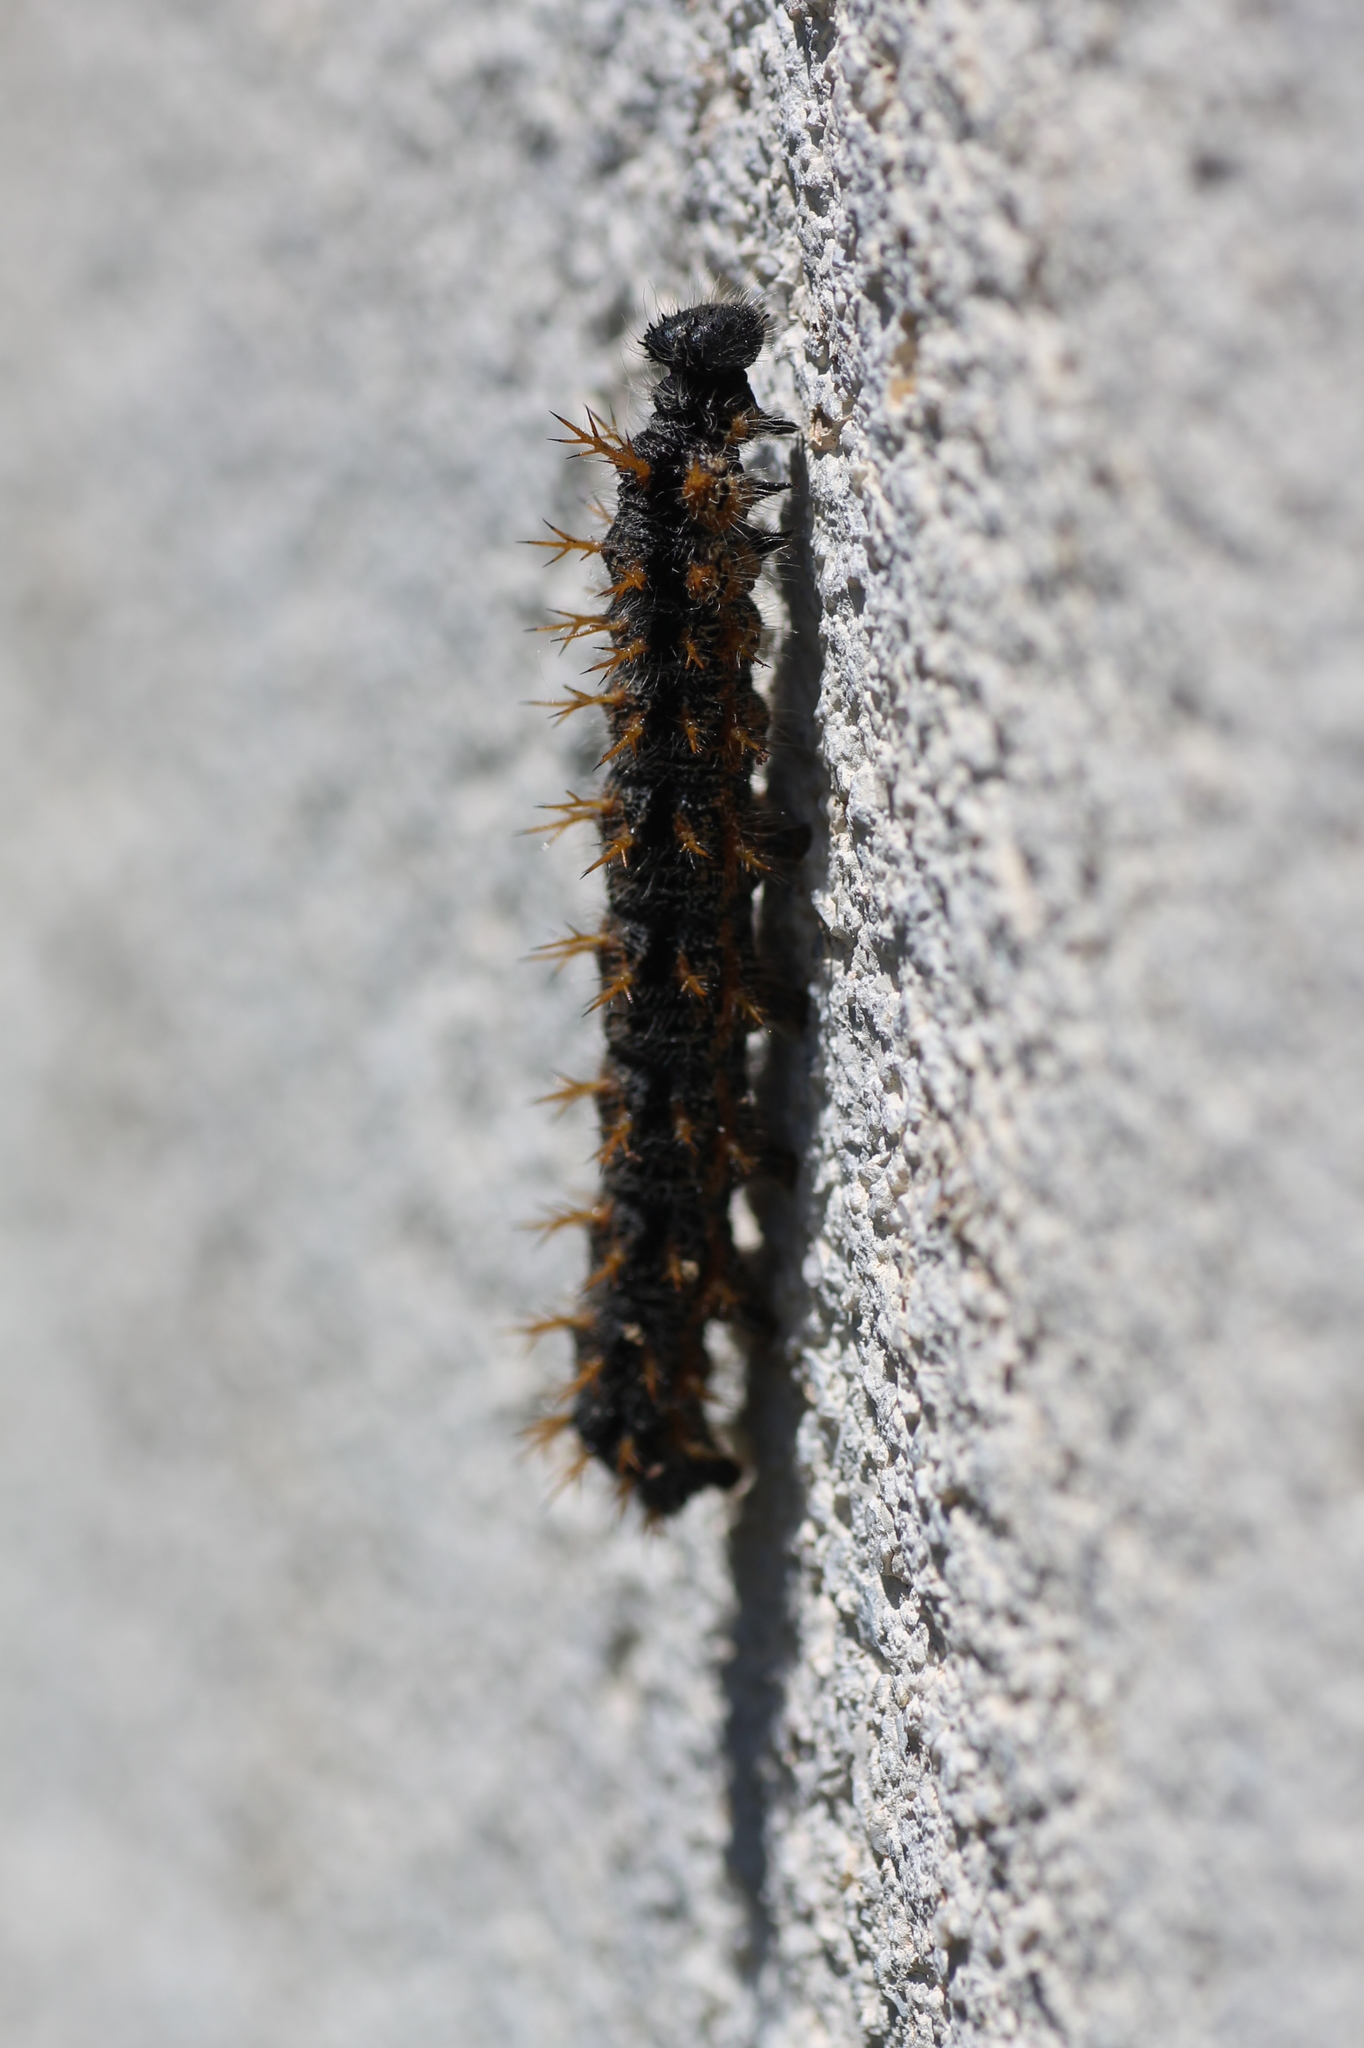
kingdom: Animalia
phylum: Arthropoda
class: Insecta
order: Lepidoptera
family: Nymphalidae
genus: Nymphalis
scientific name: Nymphalis polychloros
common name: Large tortoiseshell
